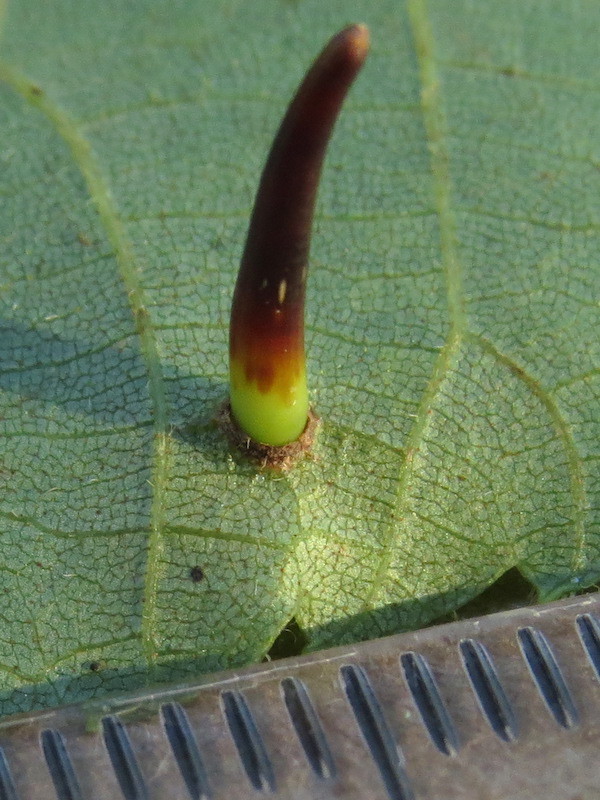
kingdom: Animalia
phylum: Arthropoda
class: Insecta
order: Diptera
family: Cecidomyiidae
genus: Caryomyia
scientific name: Caryomyia subulata
